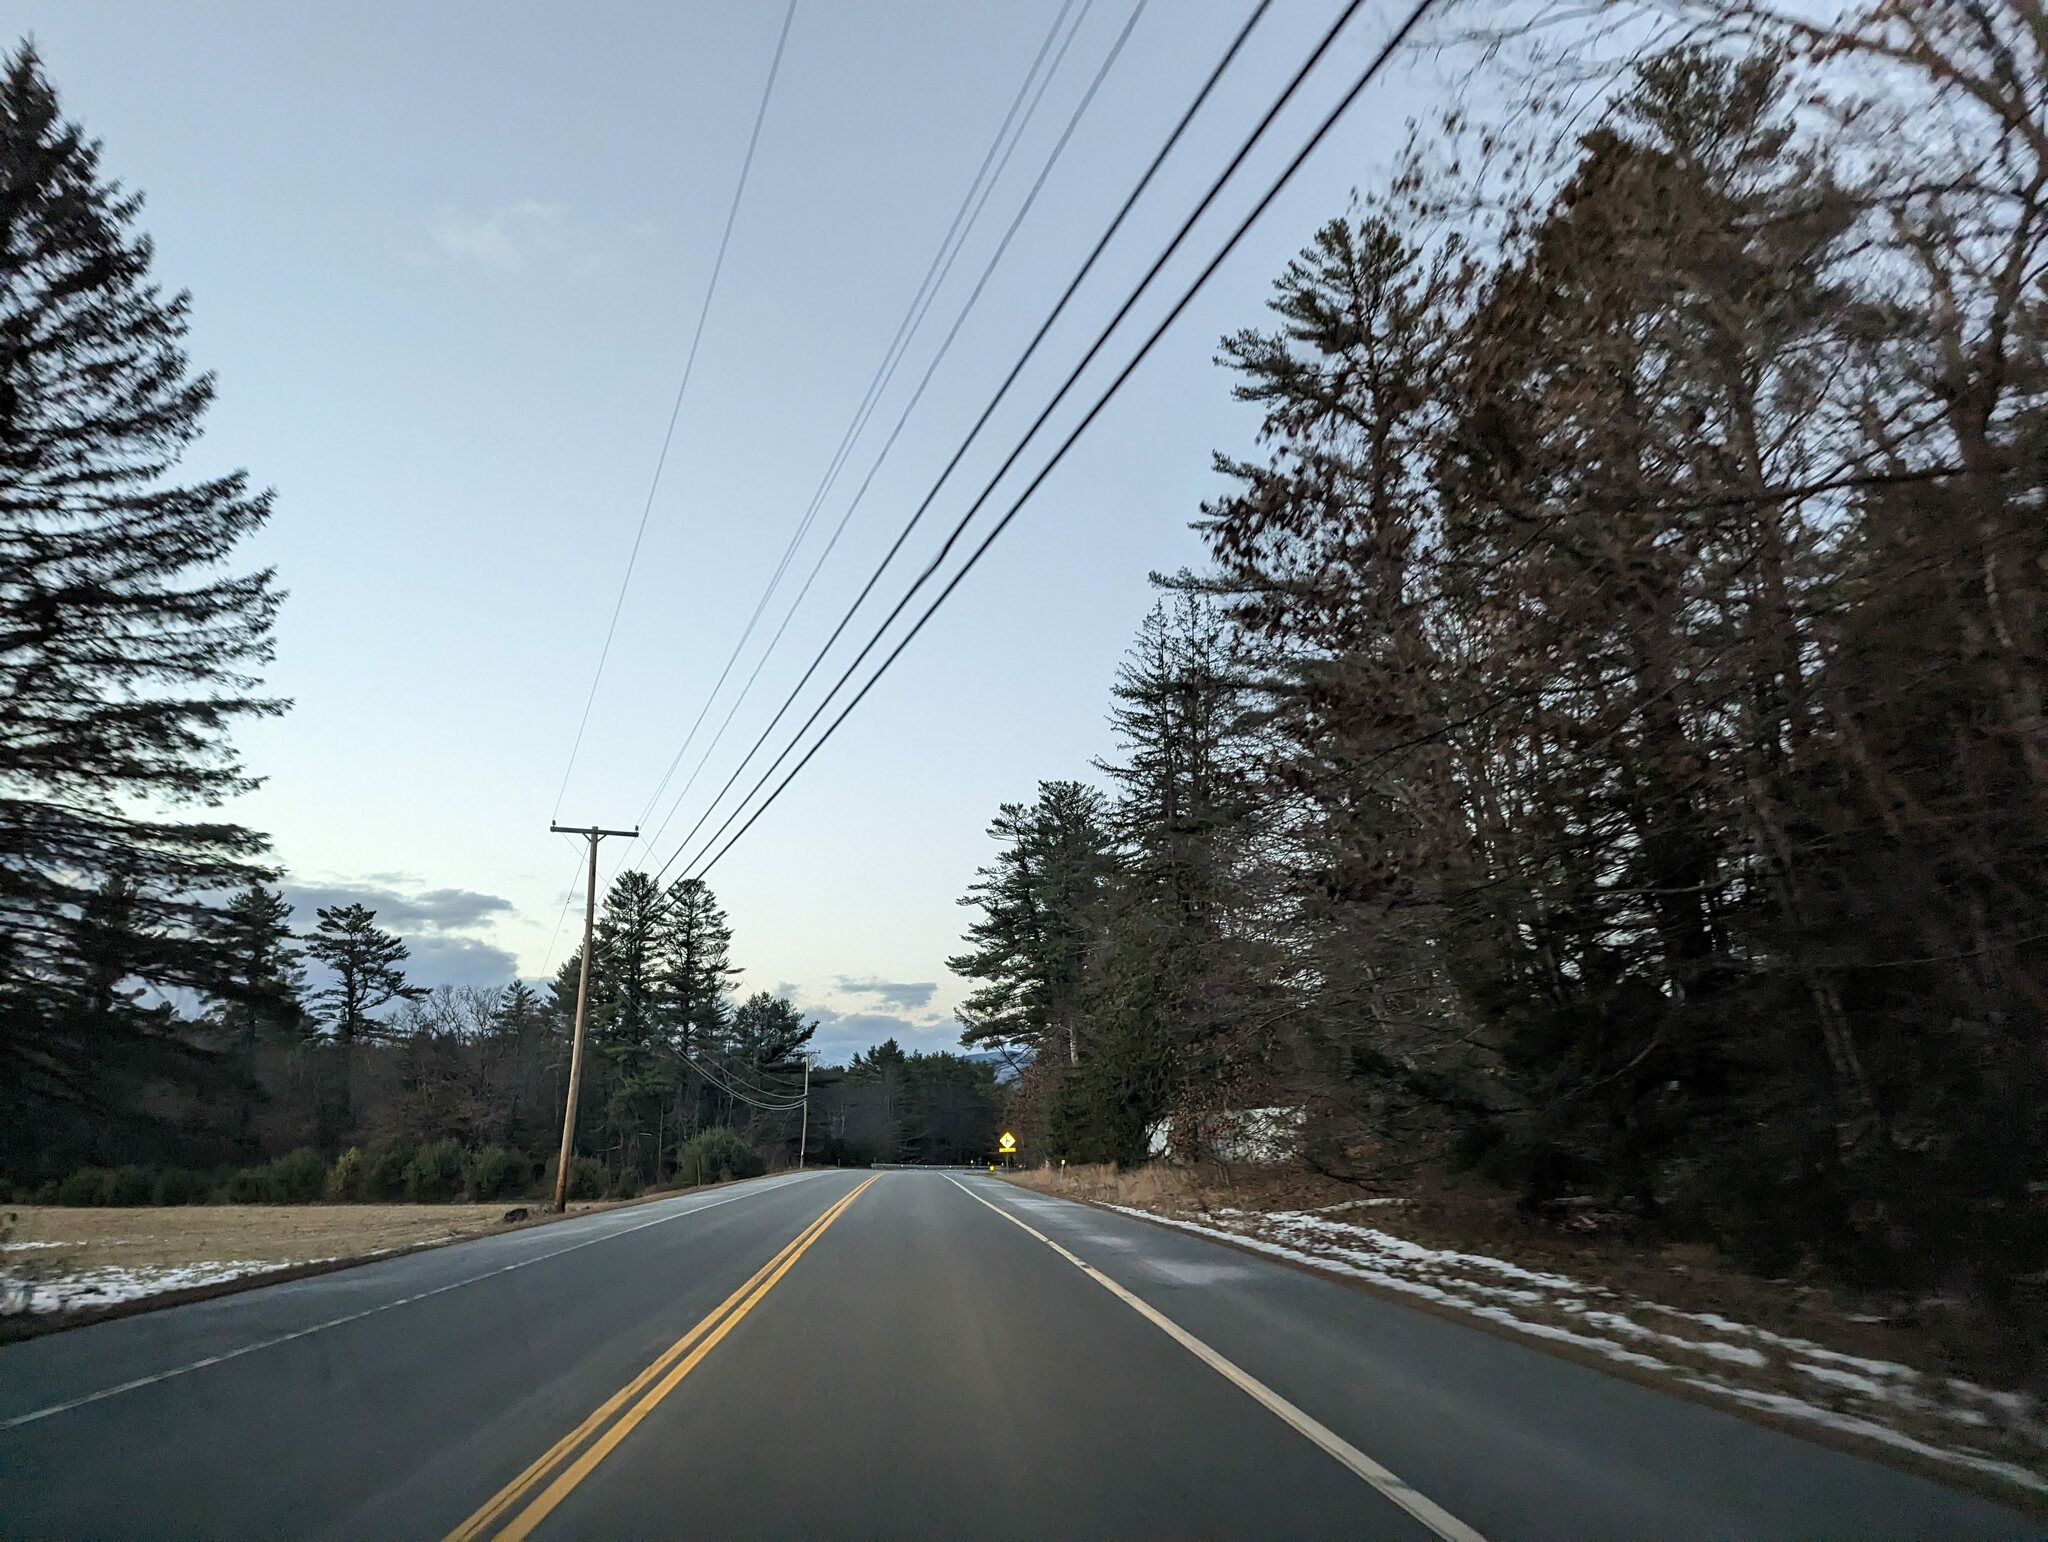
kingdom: Plantae
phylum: Tracheophyta
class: Pinopsida
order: Pinales
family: Pinaceae
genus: Pinus
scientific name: Pinus strobus
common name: Weymouth pine
